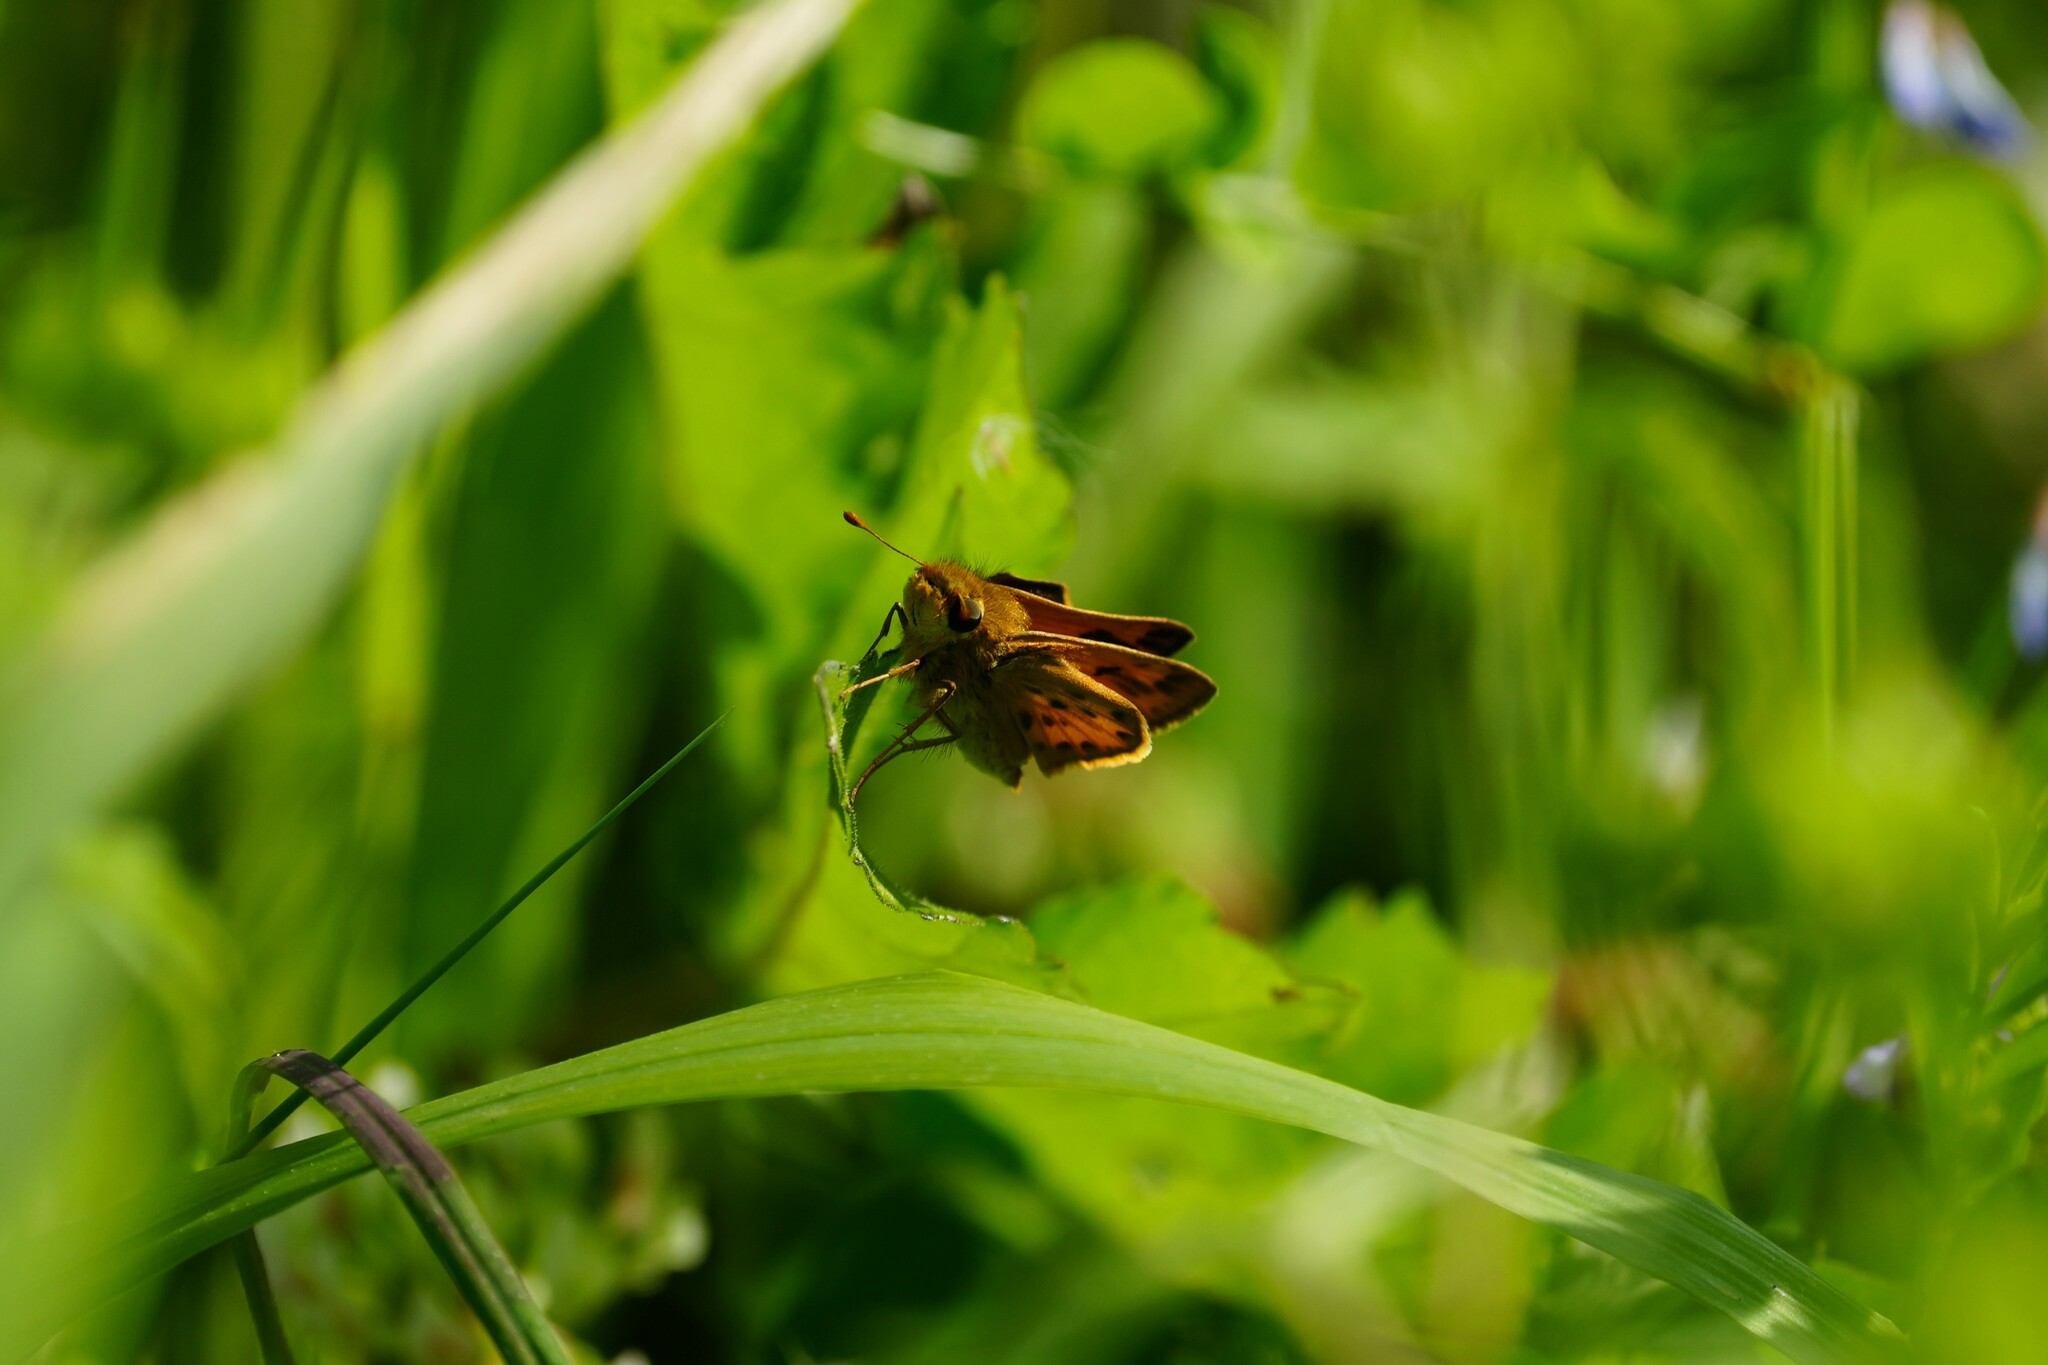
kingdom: Animalia
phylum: Arthropoda
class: Insecta
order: Lepidoptera
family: Hesperiidae
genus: Hylephila
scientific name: Hylephila phyleus
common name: Fiery skipper
